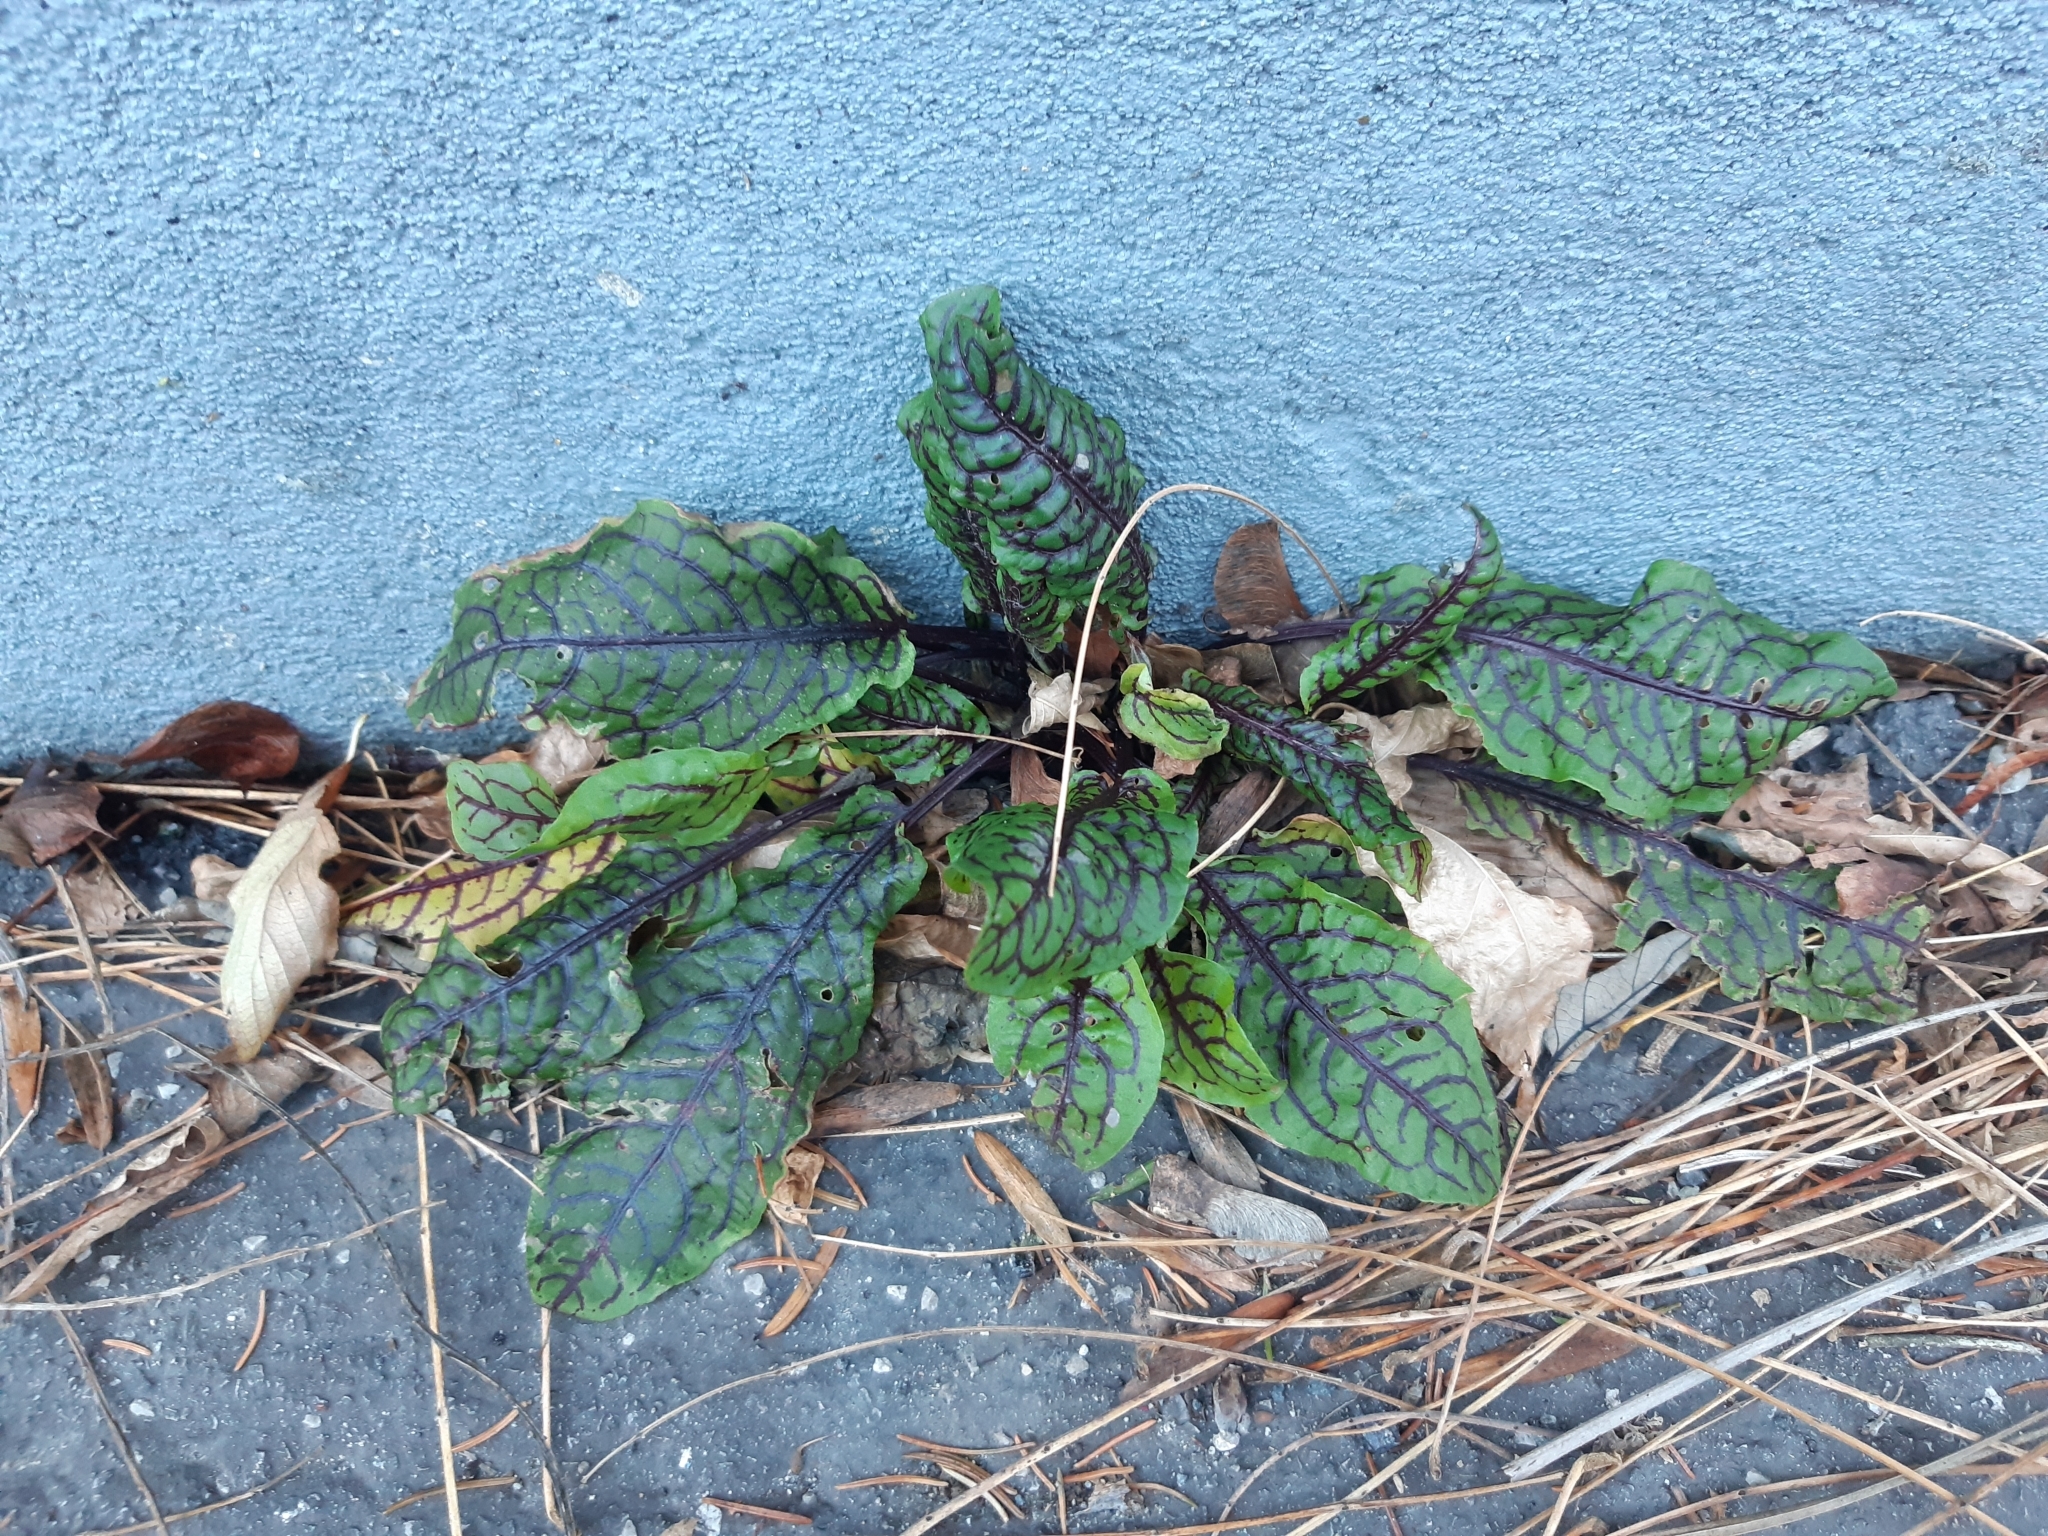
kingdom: Plantae
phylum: Tracheophyta
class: Magnoliopsida
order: Caryophyllales
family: Polygonaceae
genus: Rumex
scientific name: Rumex sanguineus
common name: Wood dock
